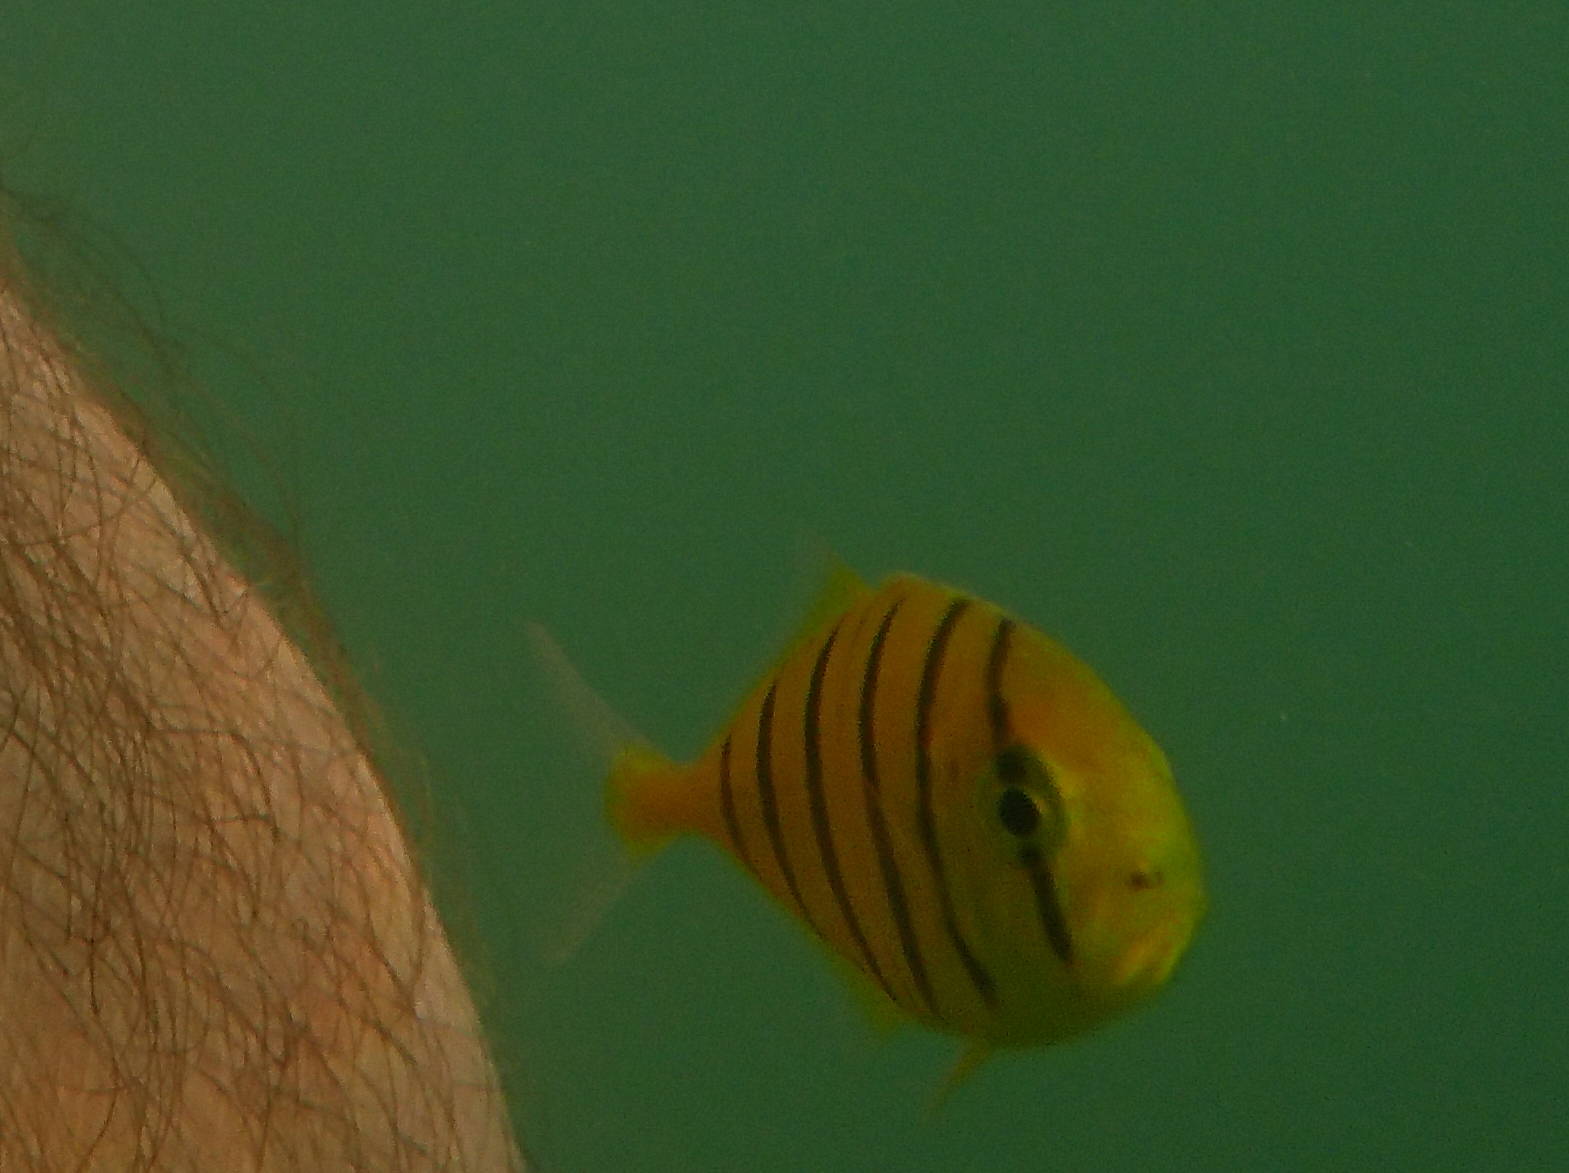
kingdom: Animalia
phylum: Chordata
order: Perciformes
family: Carangidae
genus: Gnathanodon
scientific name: Gnathanodon speciosus
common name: Golden toothless trevally
